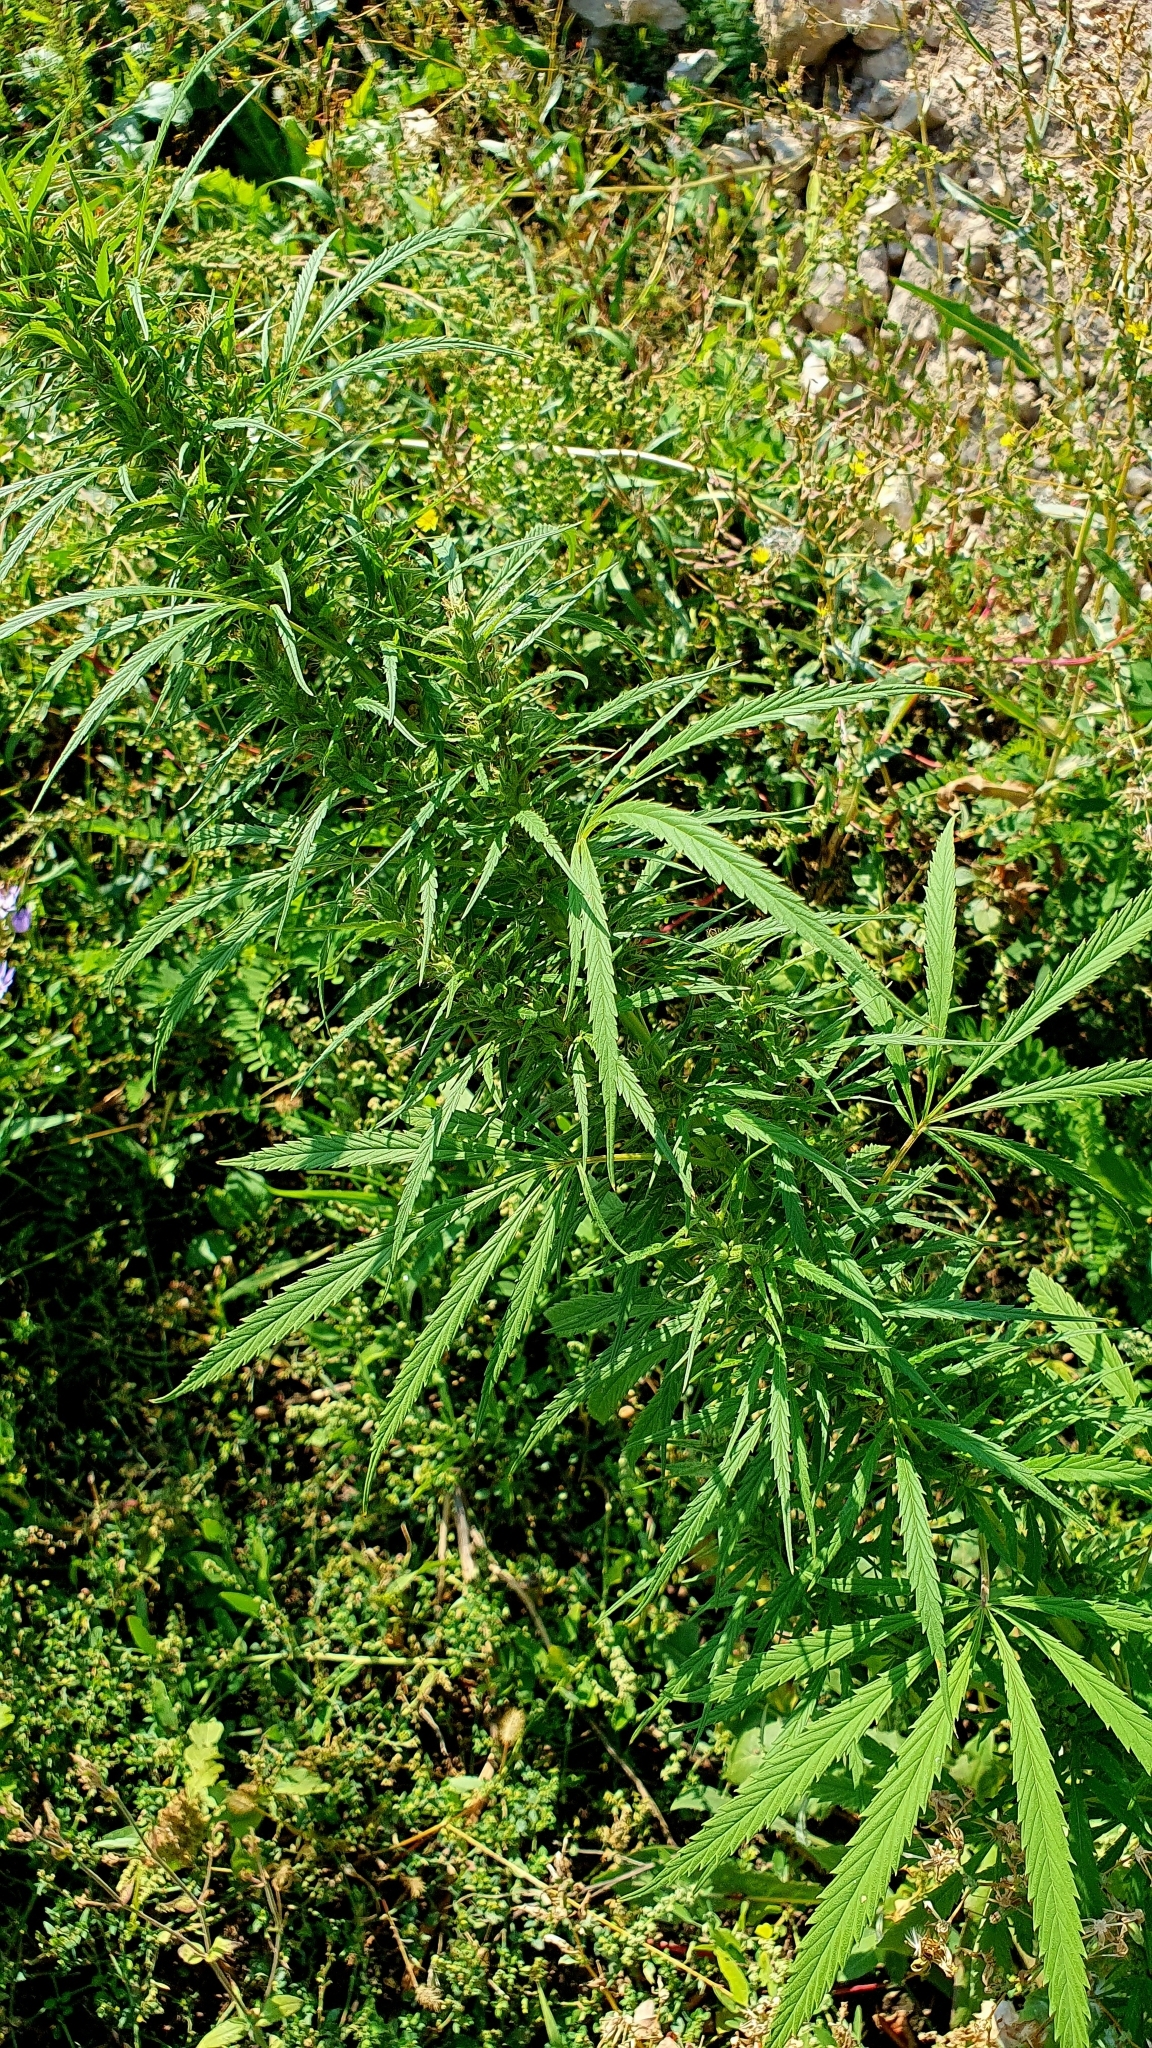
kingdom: Plantae
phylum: Tracheophyta
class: Magnoliopsida
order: Rosales
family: Cannabaceae
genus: Cannabis
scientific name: Cannabis sativa
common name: Hemp
